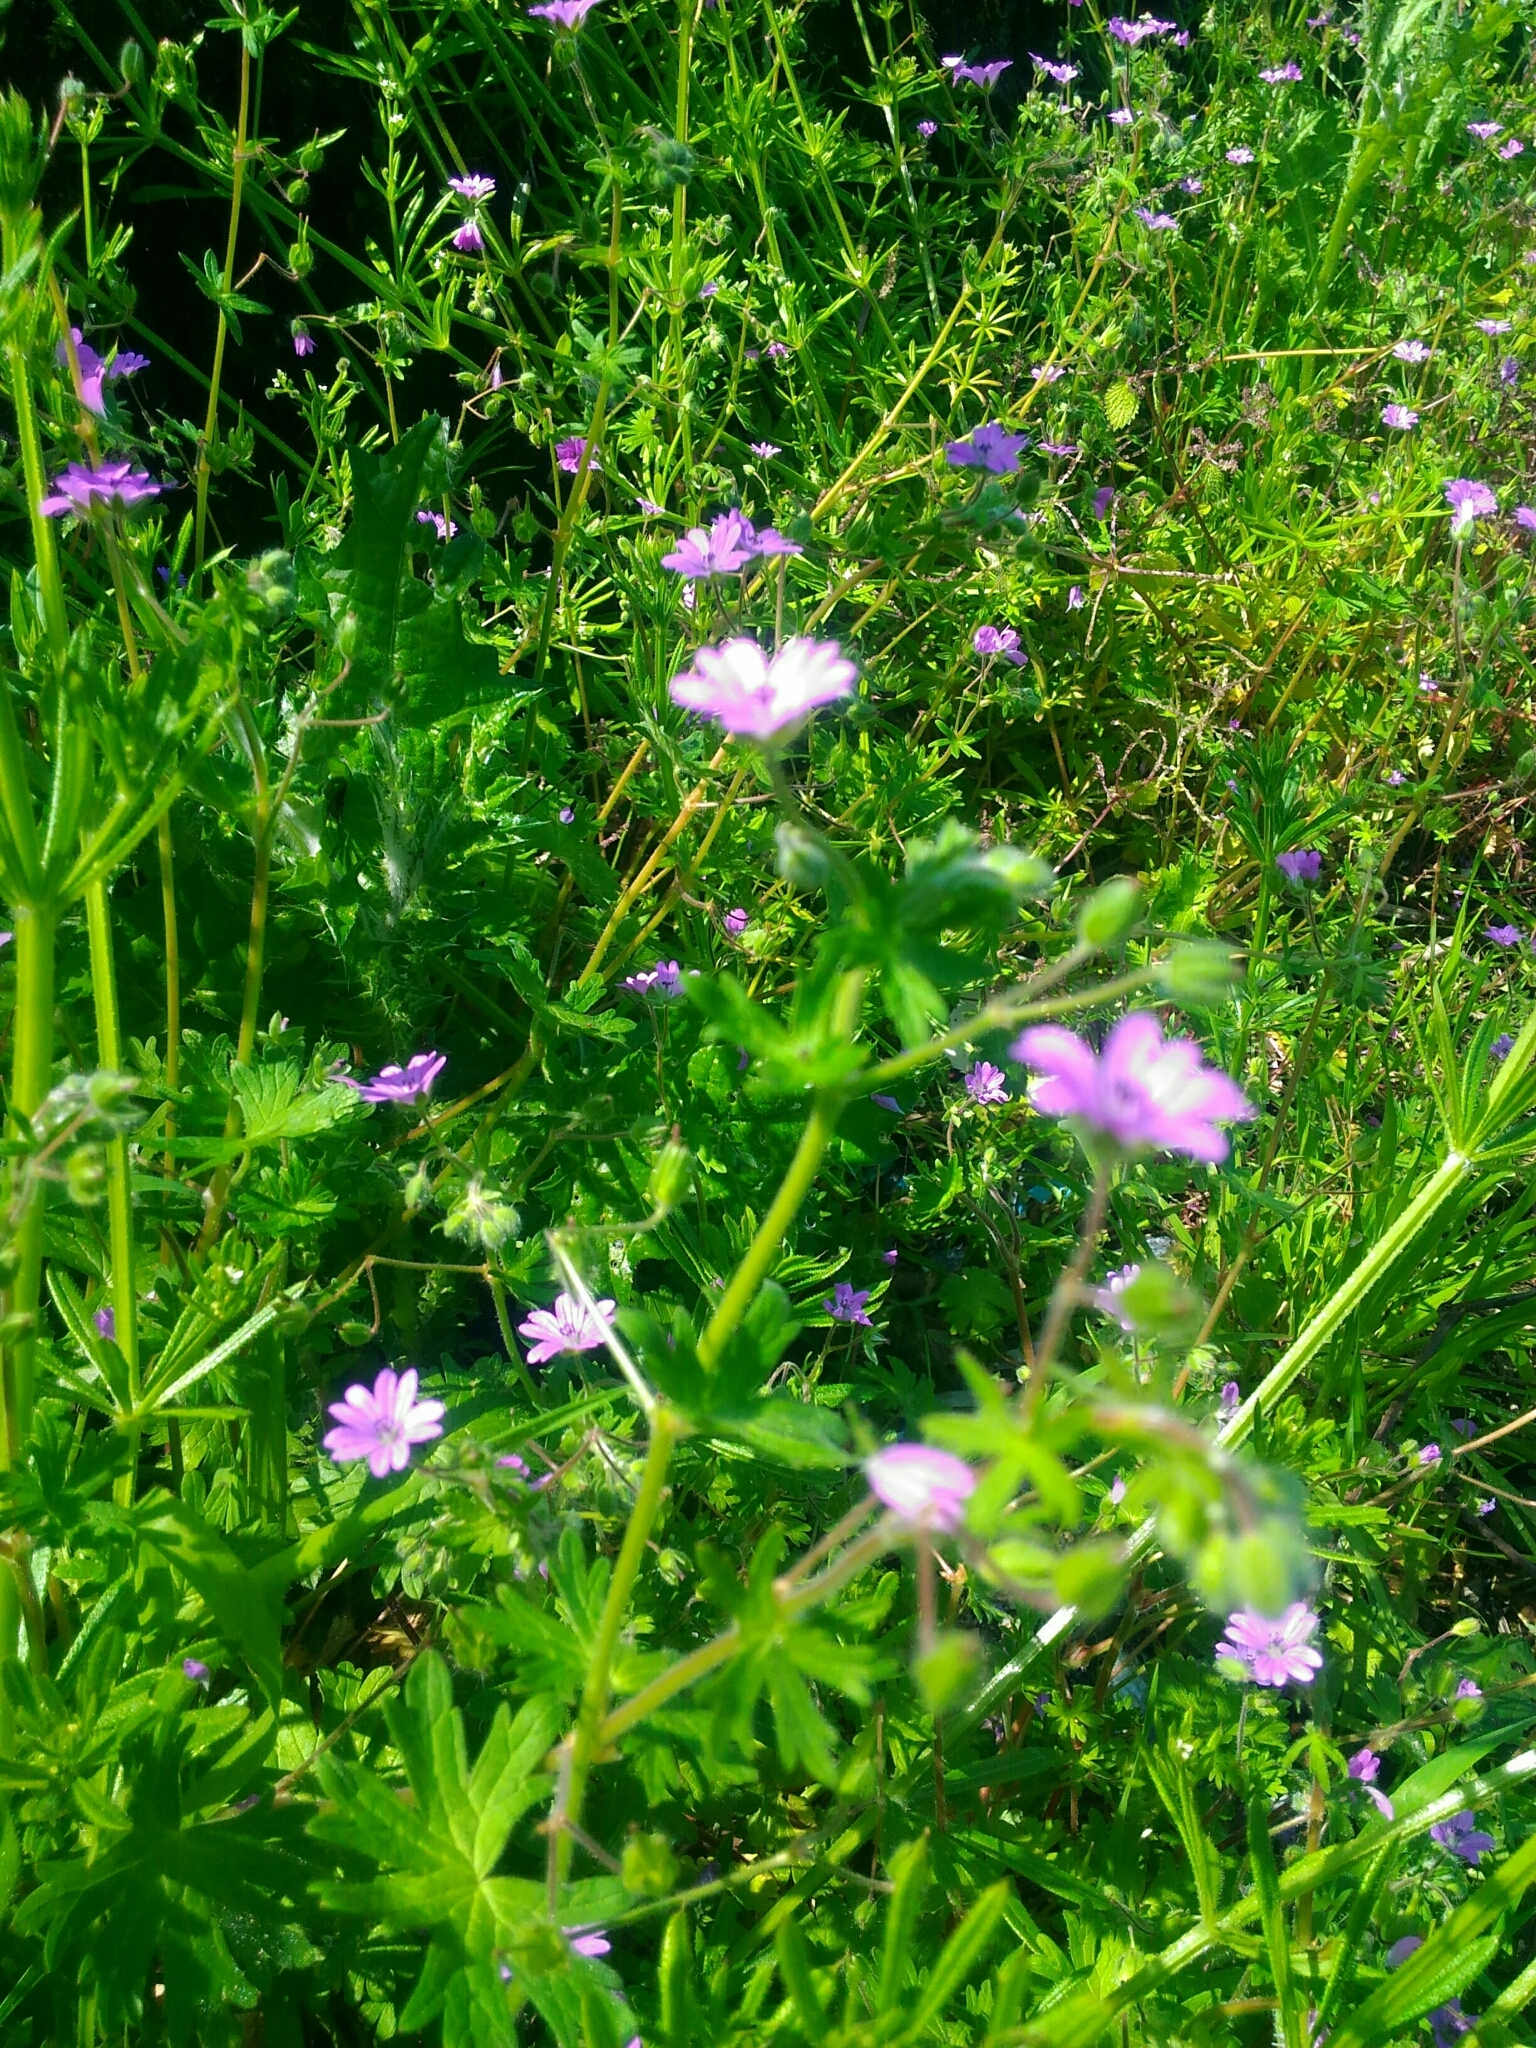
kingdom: Plantae
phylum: Tracheophyta
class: Magnoliopsida
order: Geraniales
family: Geraniaceae
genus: Geranium
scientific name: Geranium molle
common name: Dove's-foot crane's-bill
